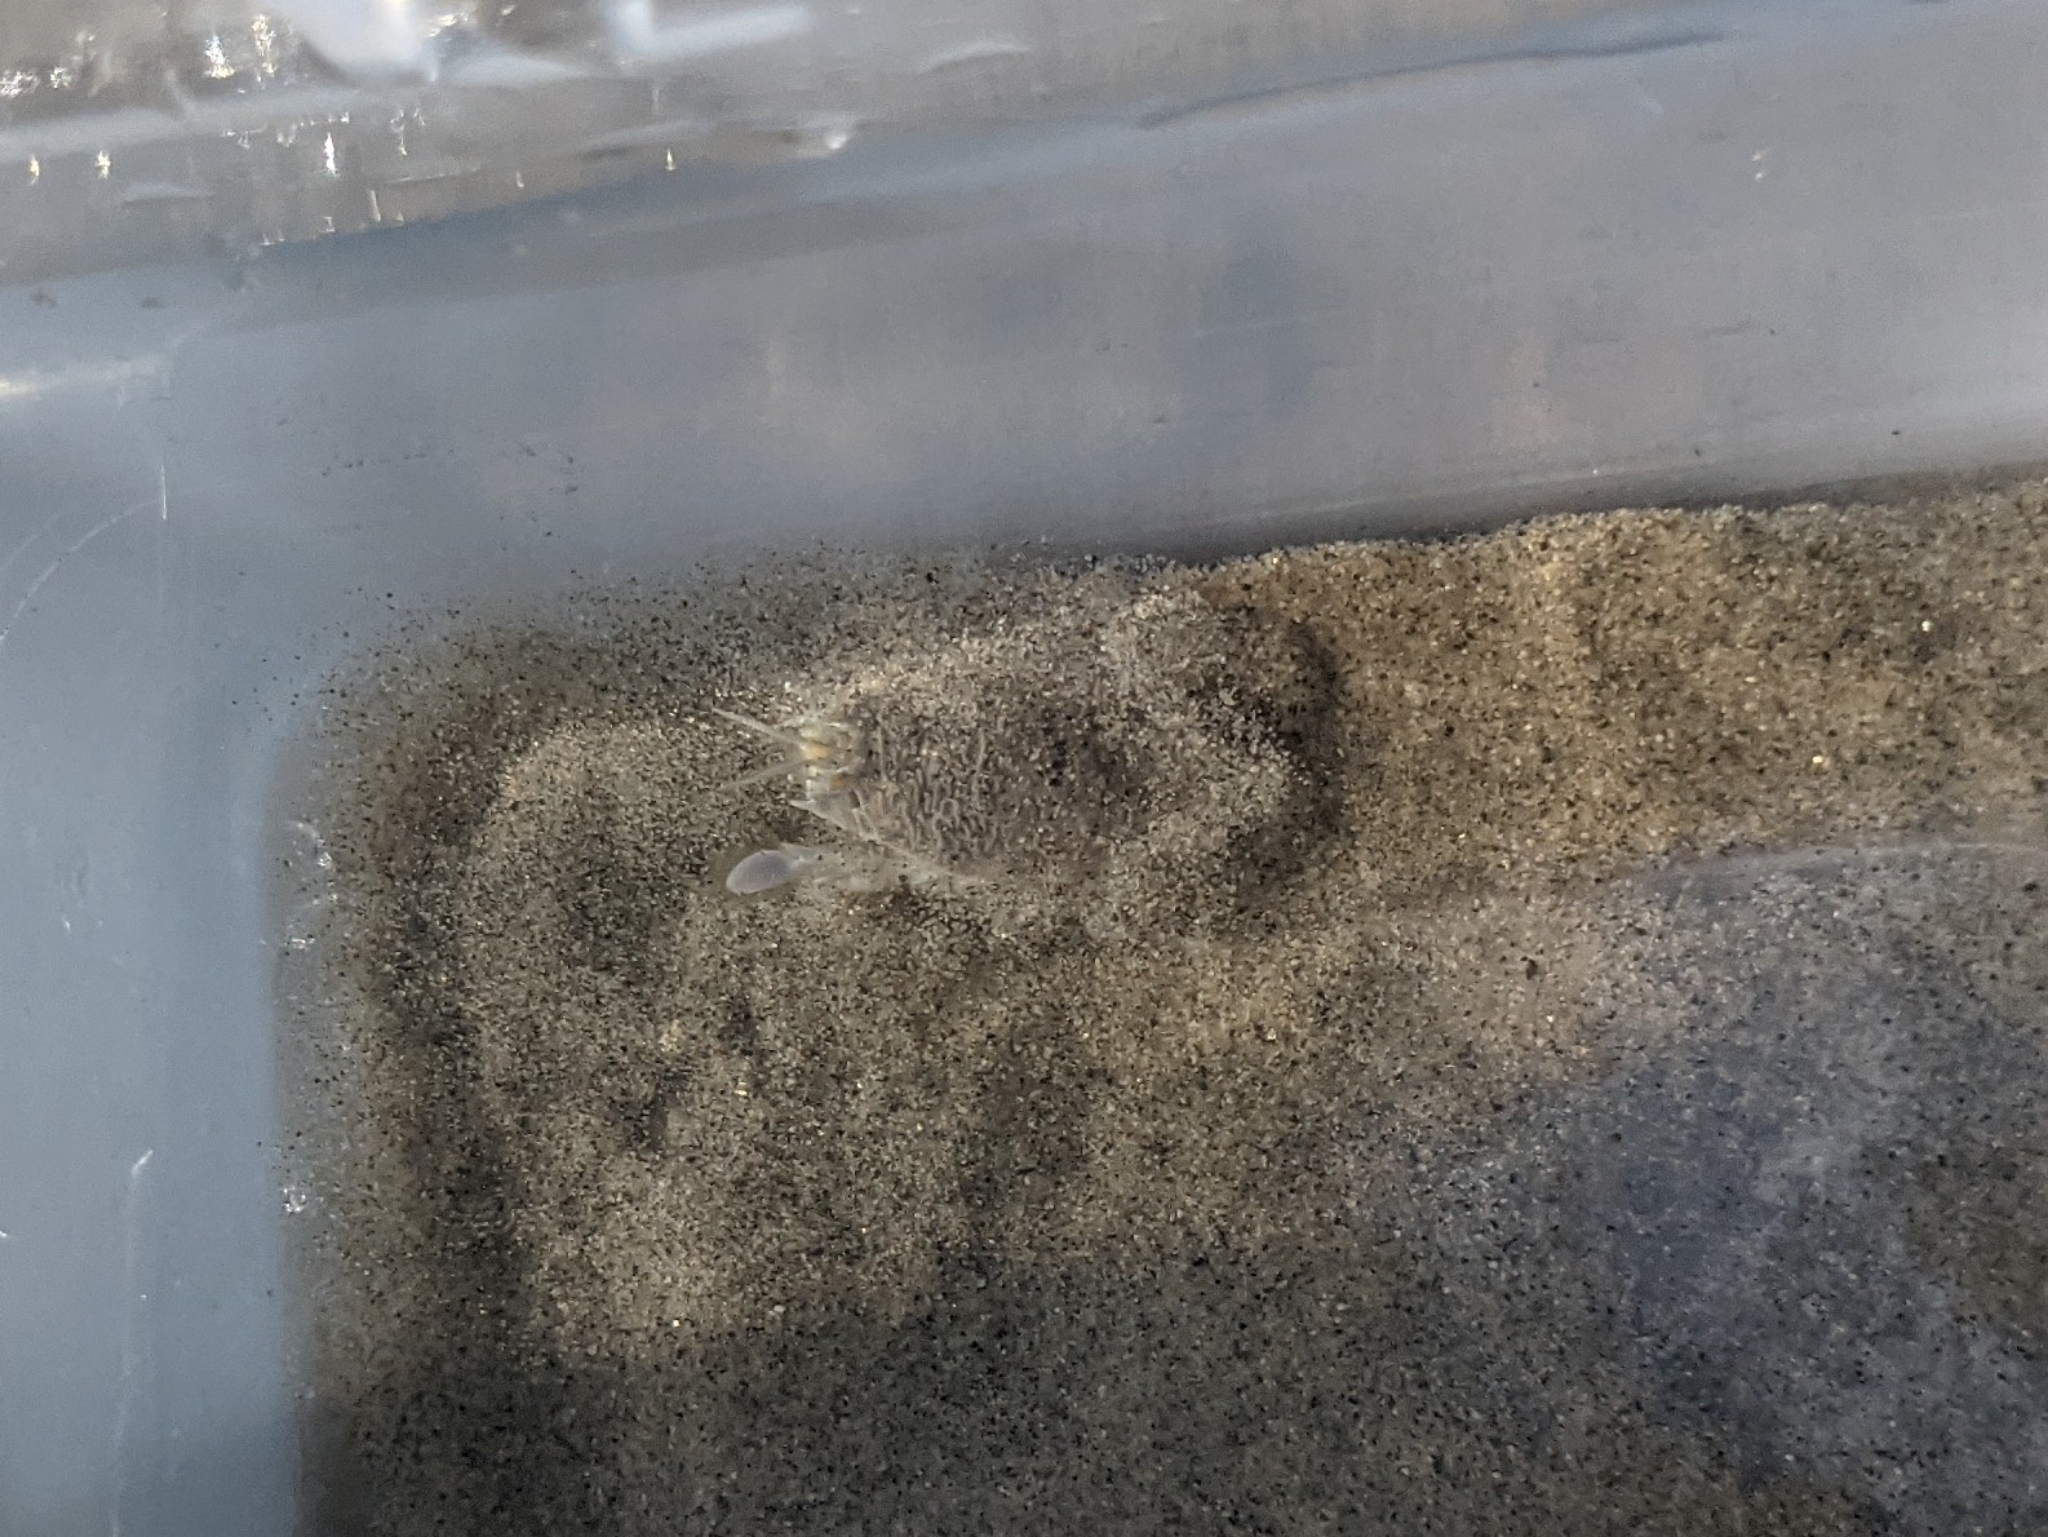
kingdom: Animalia
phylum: Arthropoda
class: Malacostraca
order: Decapoda
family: Hippidae
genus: Emerita
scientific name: Emerita analoga
